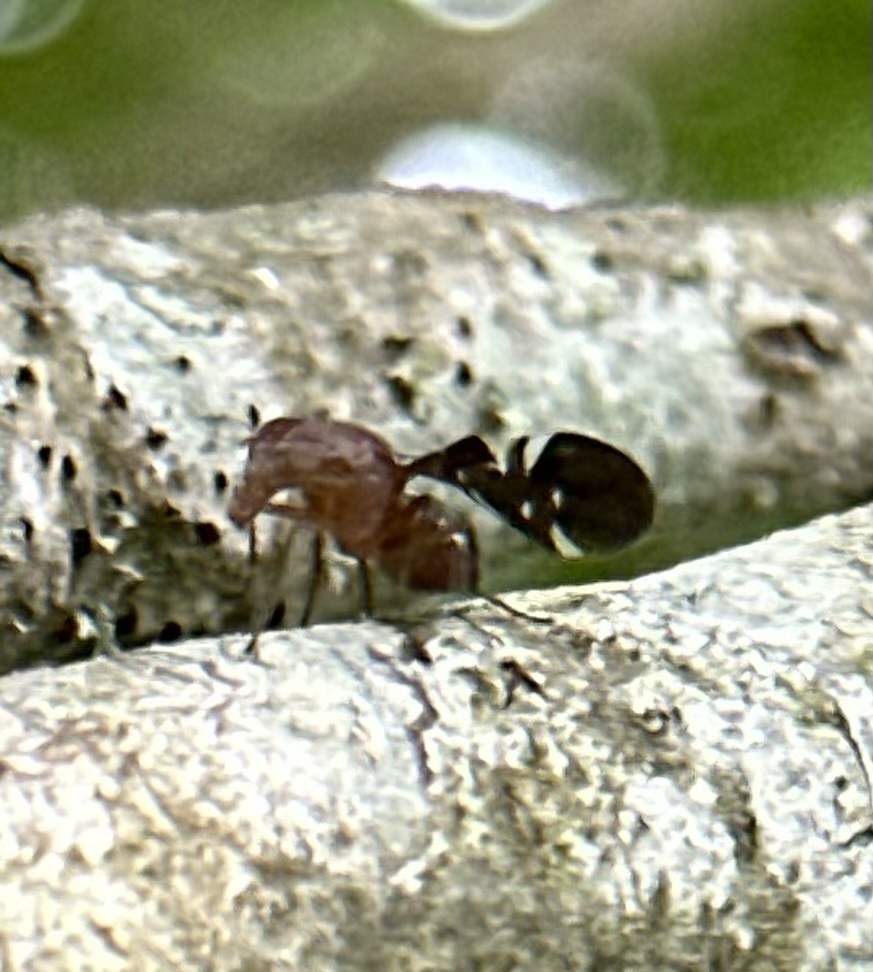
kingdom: Animalia
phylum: Arthropoda
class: Insecta
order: Diptera
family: Ulidiidae
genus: Delphinia
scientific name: Delphinia picta
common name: Common picture-winged fly
